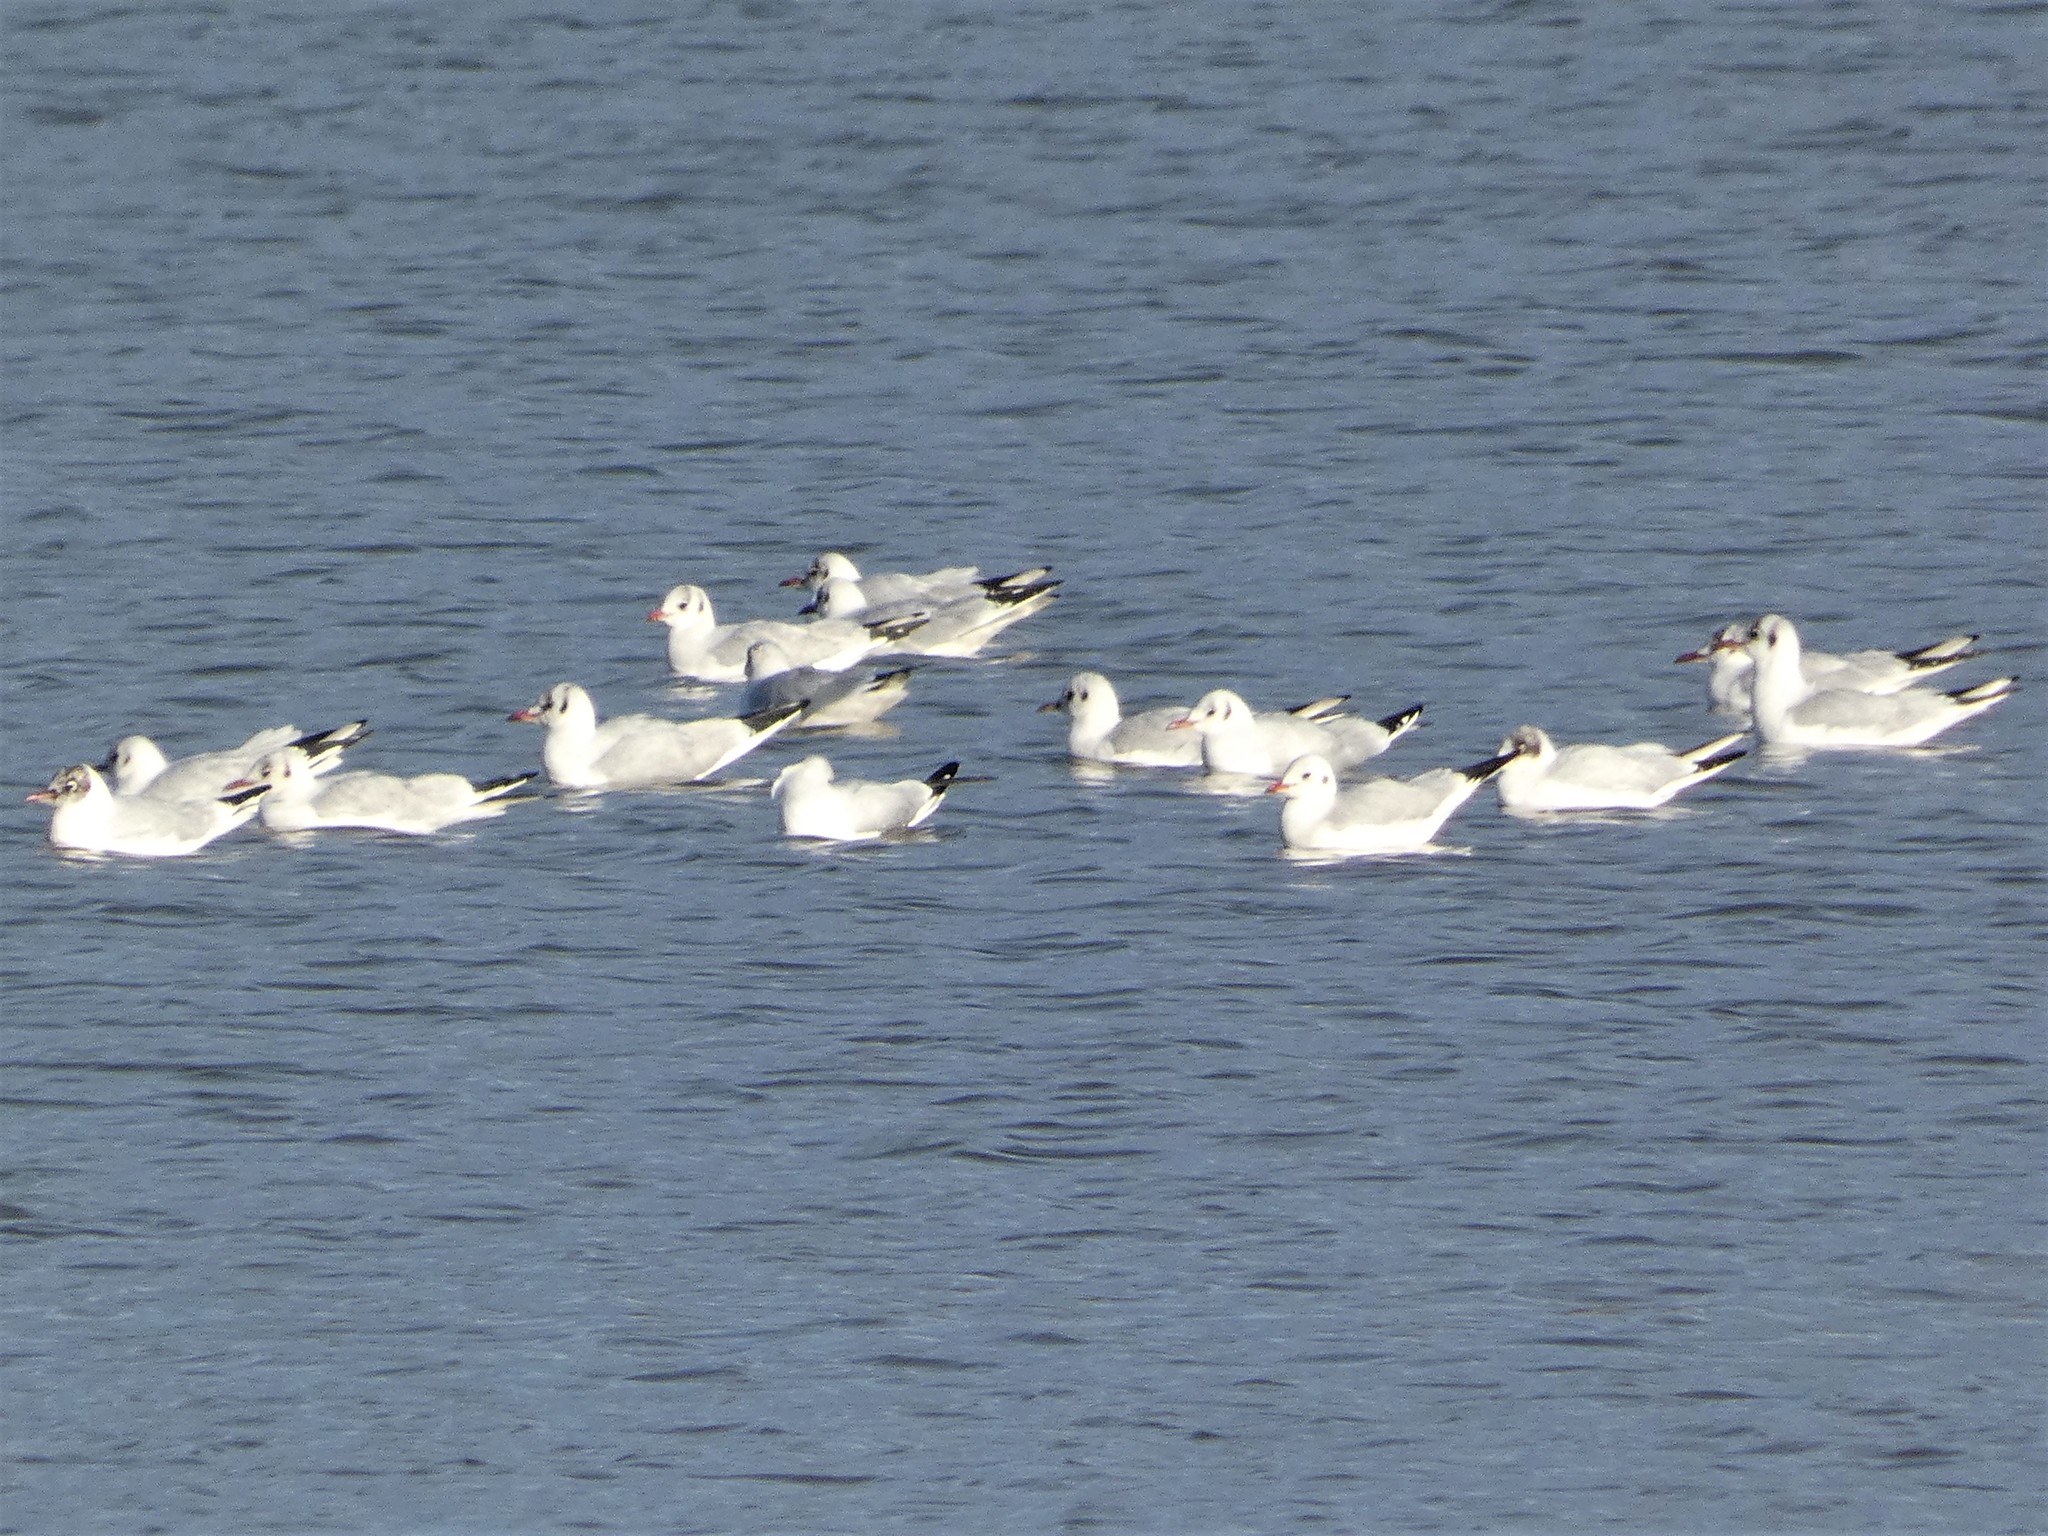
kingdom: Animalia
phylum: Chordata
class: Aves
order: Charadriiformes
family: Laridae
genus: Chroicocephalus
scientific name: Chroicocephalus ridibundus
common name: Black-headed gull
